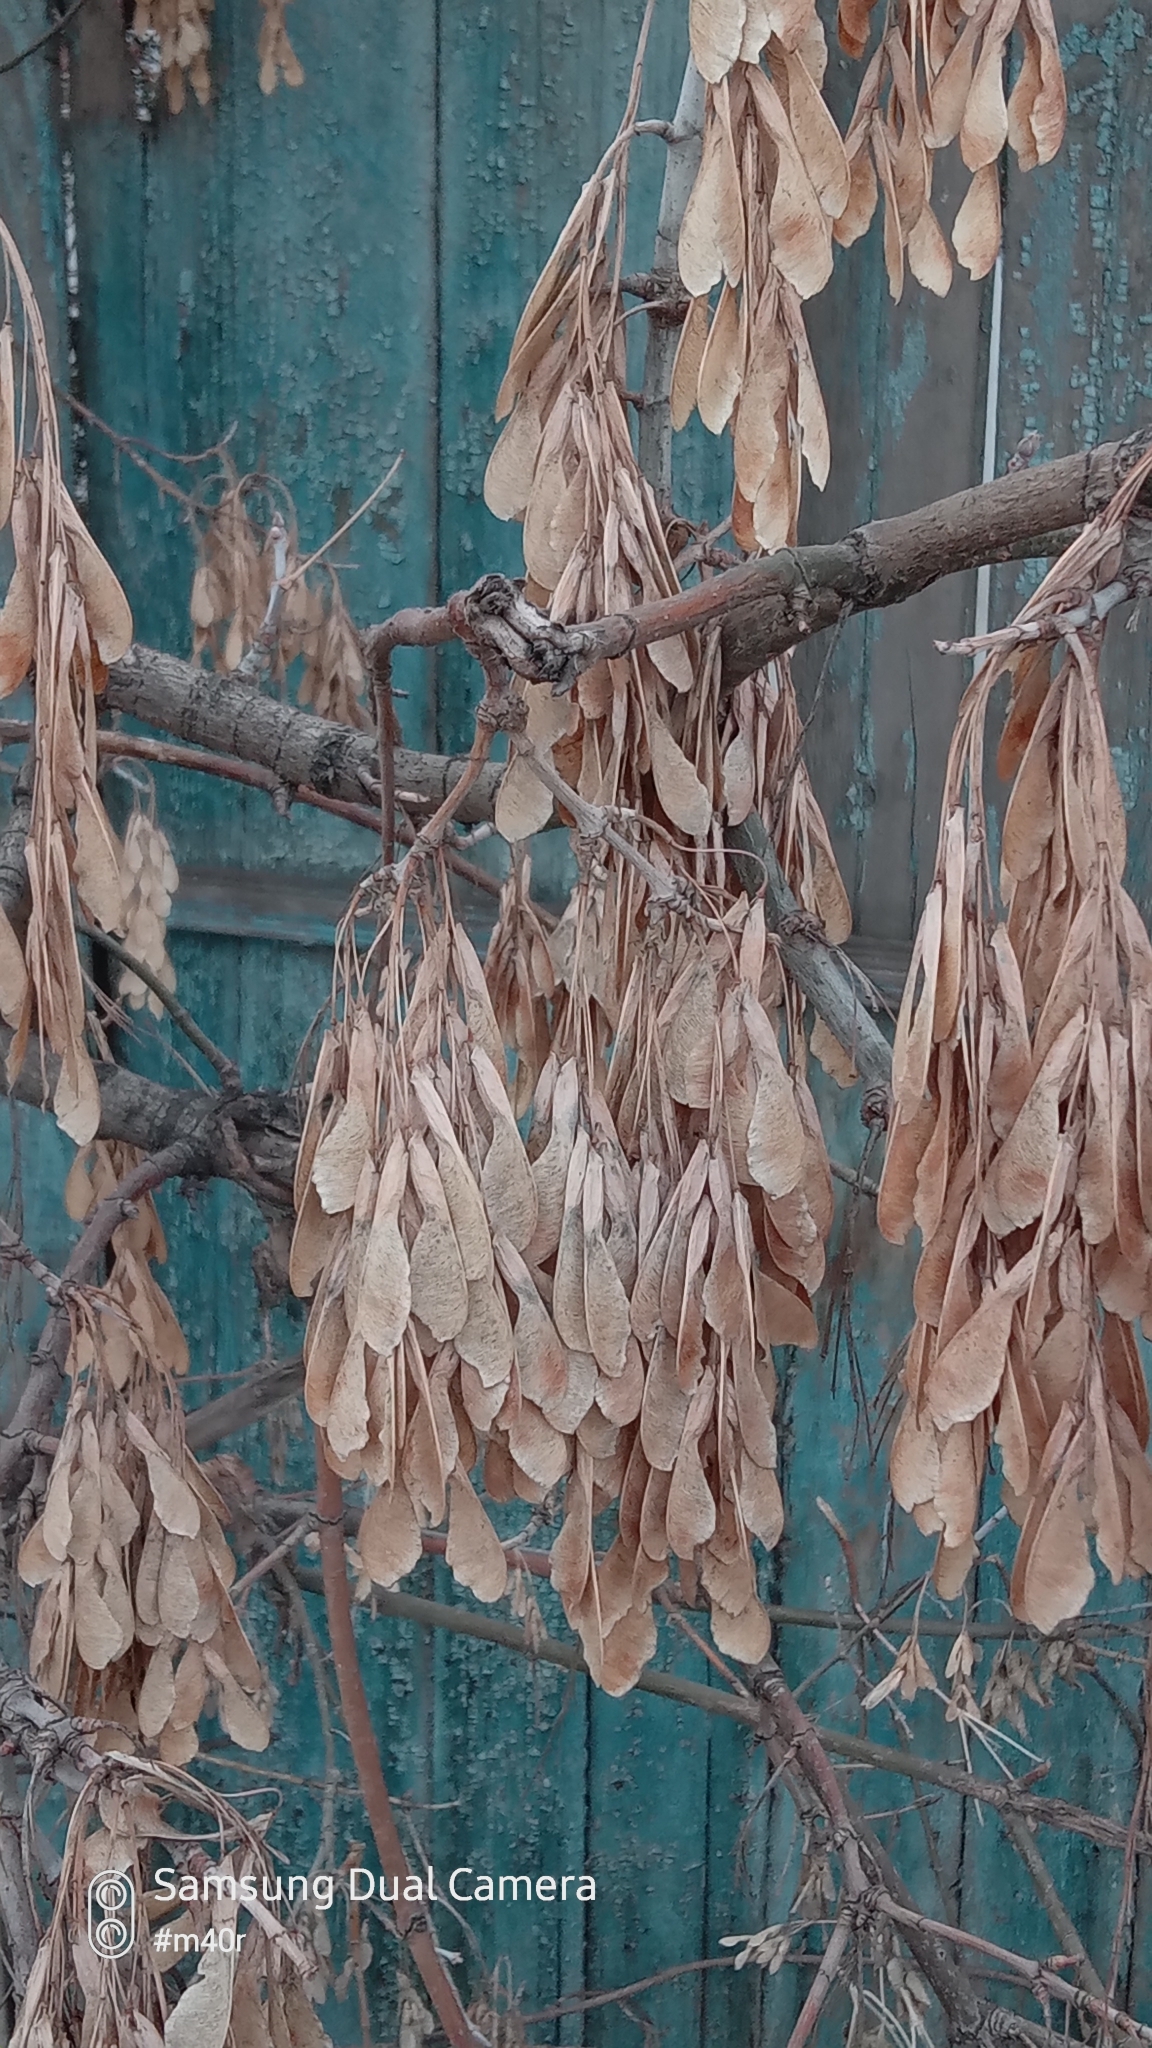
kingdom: Plantae
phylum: Tracheophyta
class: Magnoliopsida
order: Sapindales
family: Sapindaceae
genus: Acer
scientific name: Acer negundo
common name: Ashleaf maple
